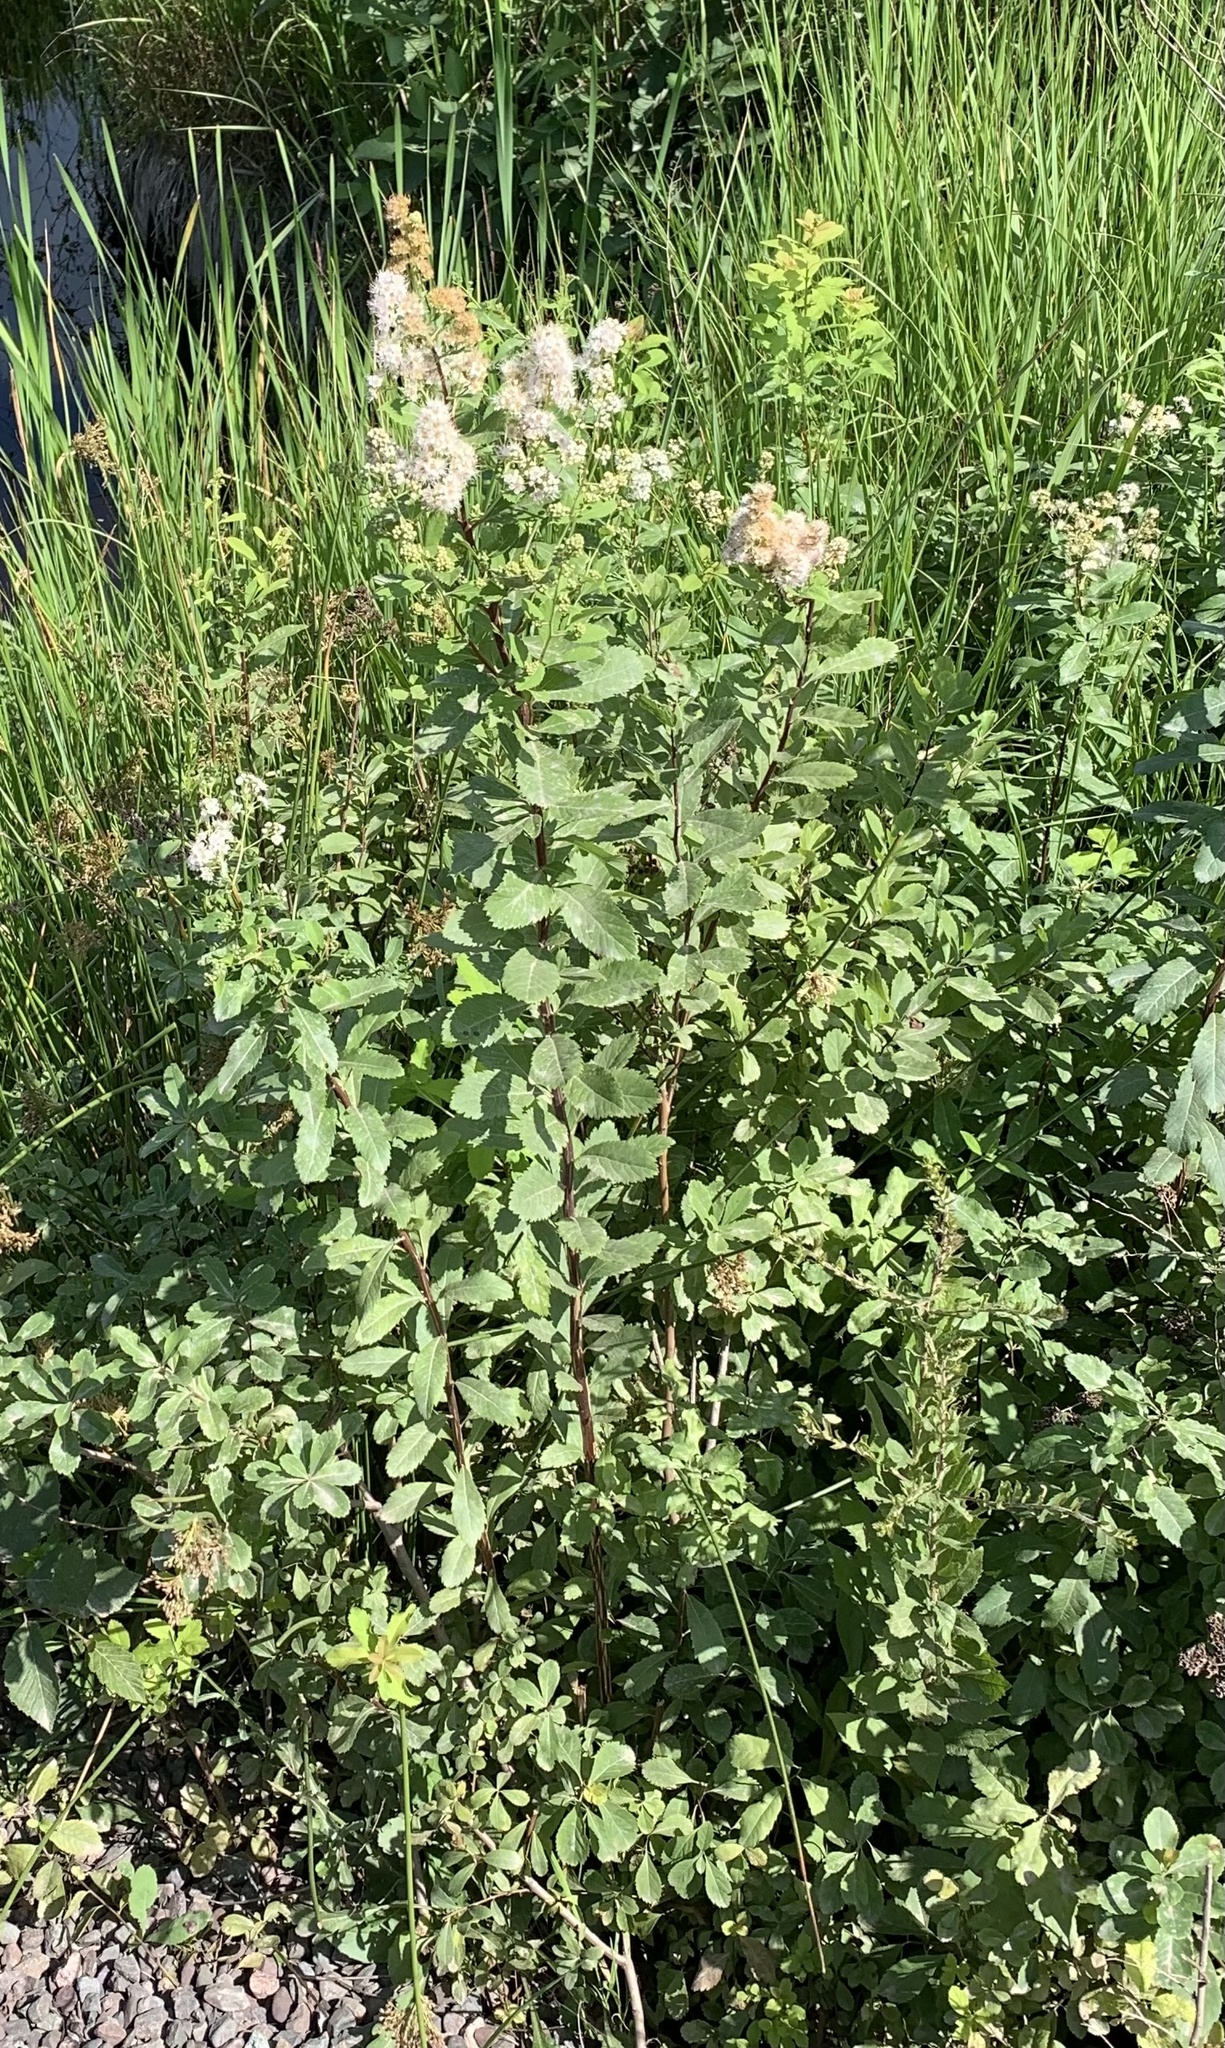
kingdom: Plantae
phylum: Tracheophyta
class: Magnoliopsida
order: Rosales
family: Rosaceae
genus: Spiraea
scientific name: Spiraea alba
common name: Pale bridewort
